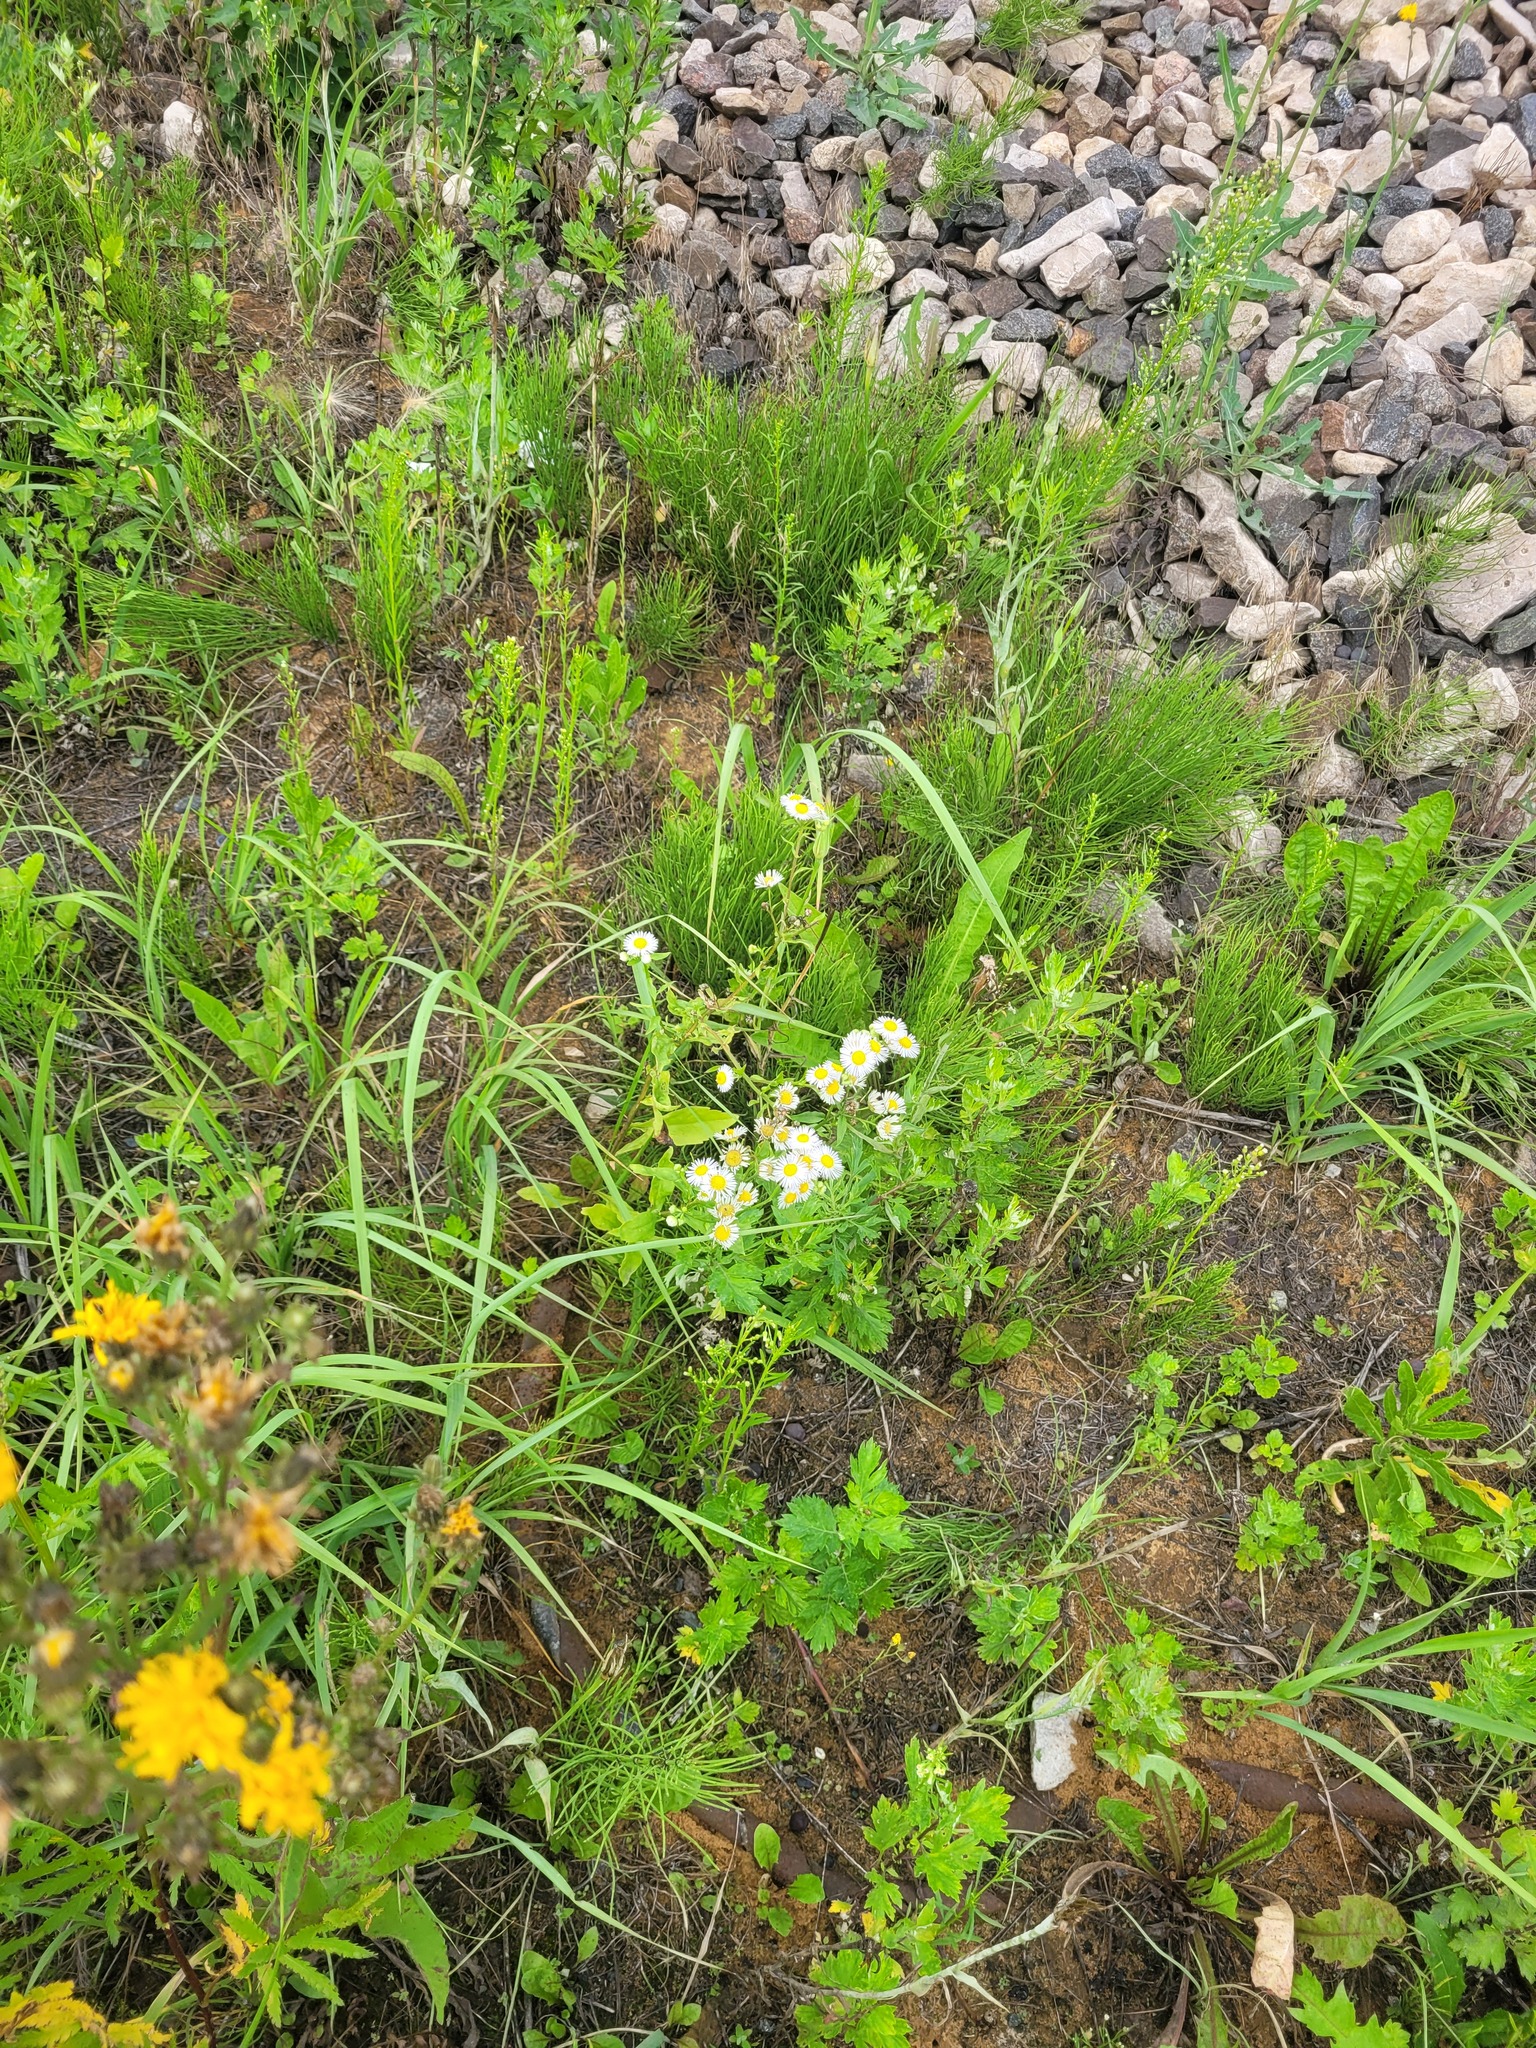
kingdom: Plantae
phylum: Tracheophyta
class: Magnoliopsida
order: Asterales
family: Asteraceae
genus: Erigeron
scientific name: Erigeron annuus
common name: Tall fleabane
